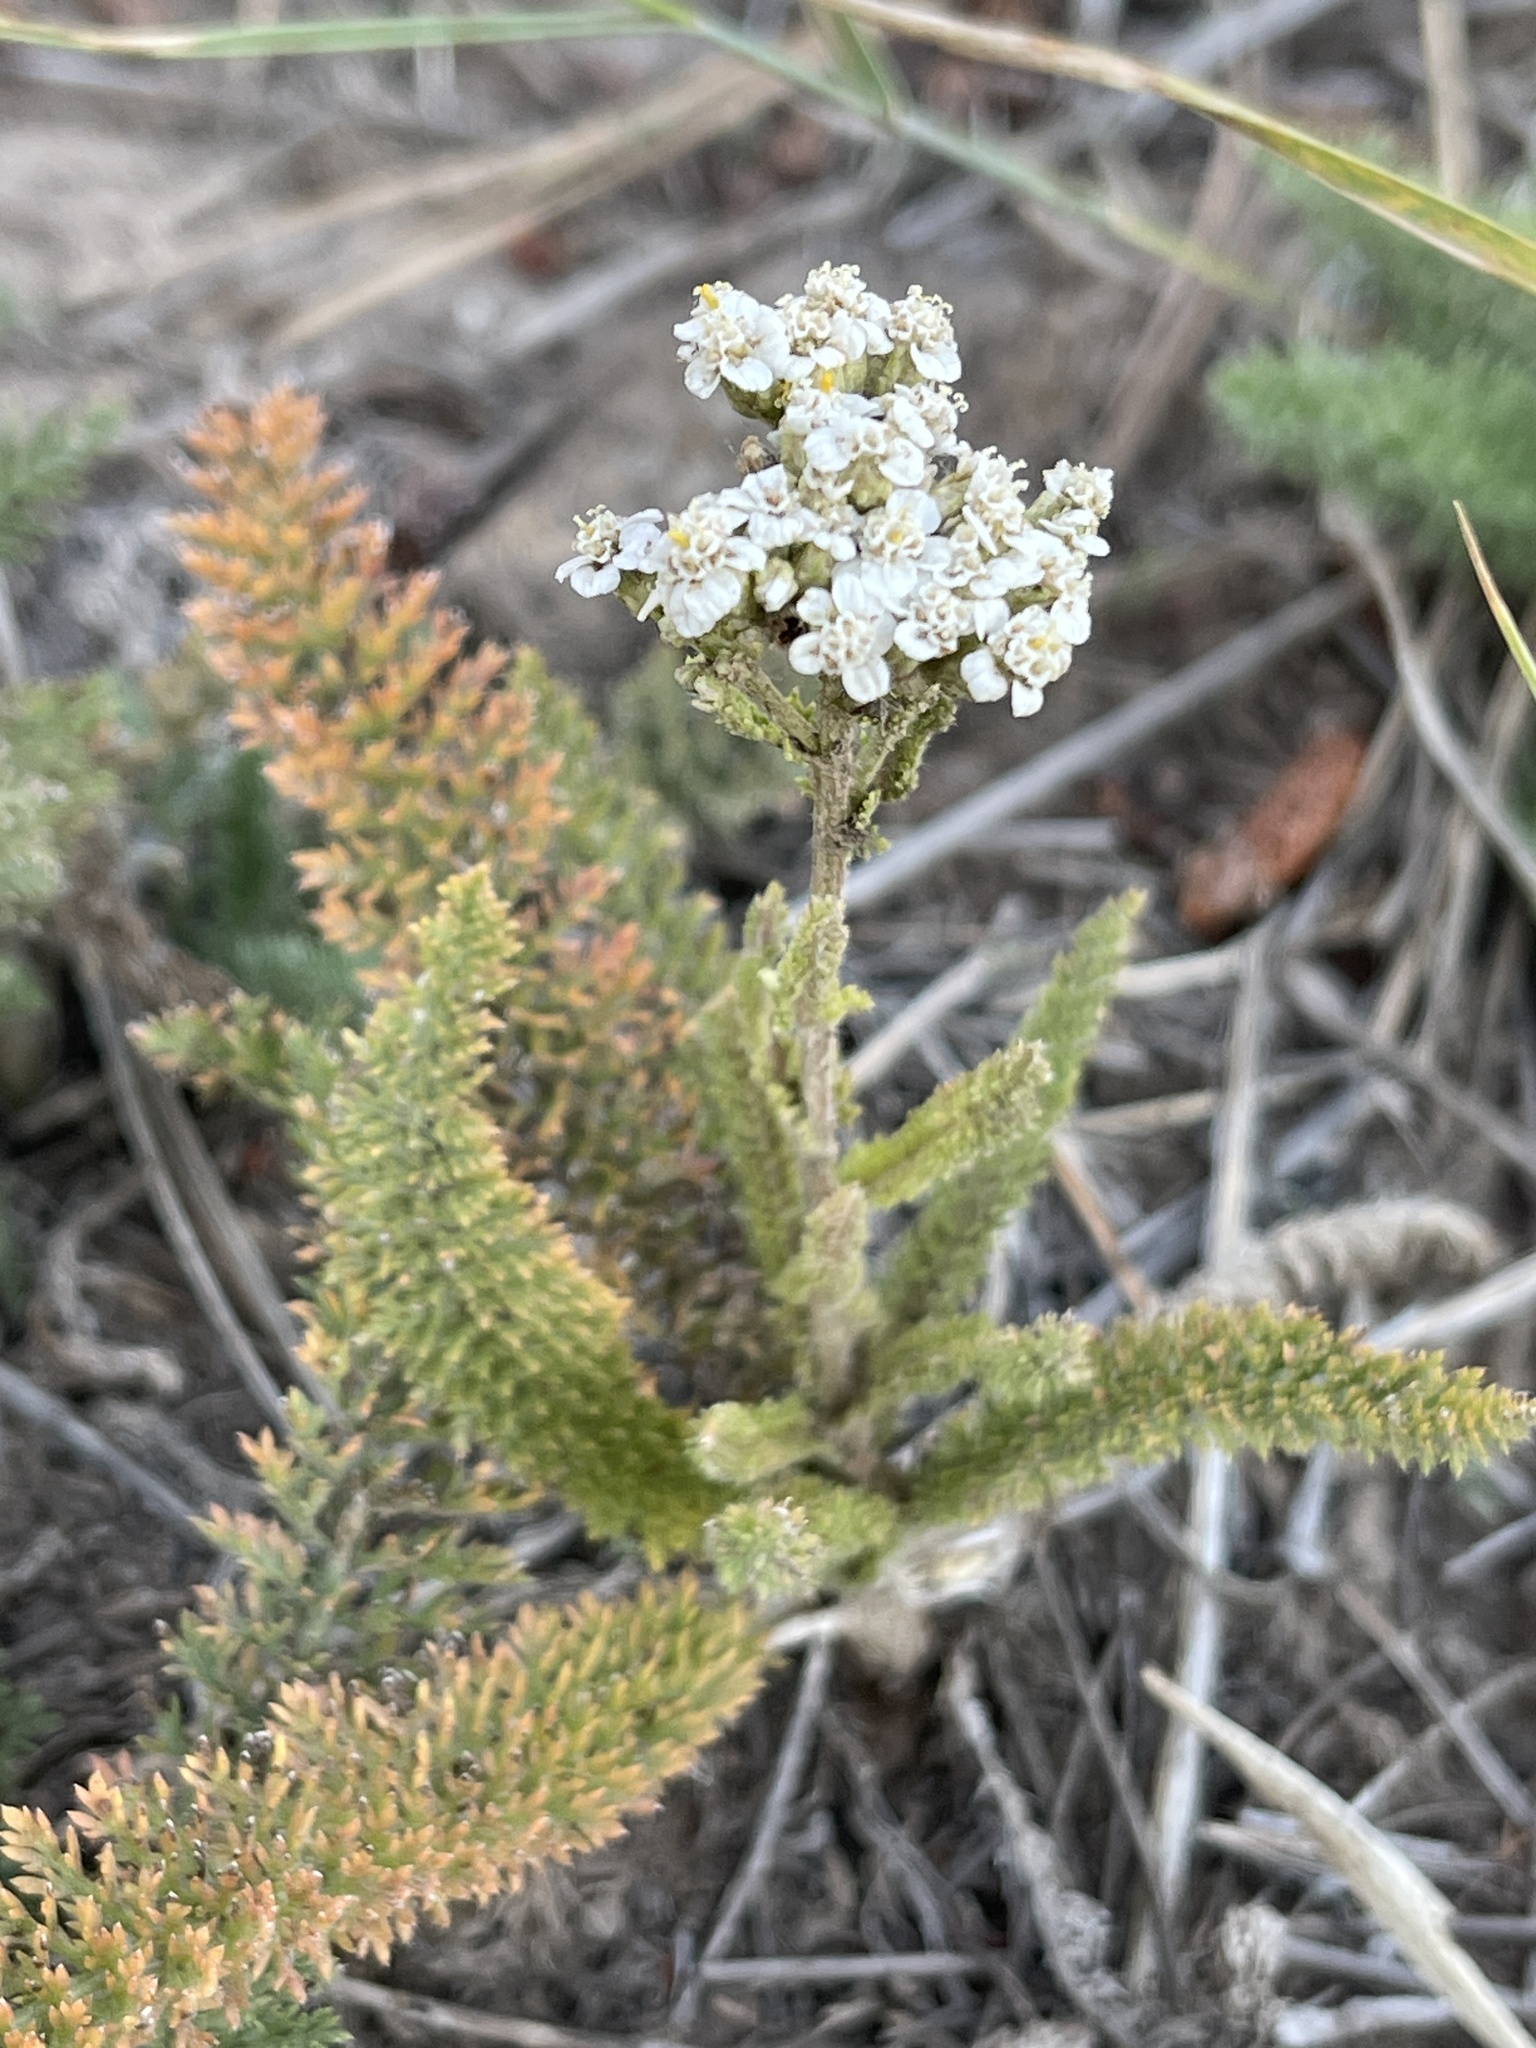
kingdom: Plantae
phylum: Tracheophyta
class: Magnoliopsida
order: Asterales
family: Asteraceae
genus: Achillea
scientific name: Achillea millefolium
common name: Yarrow
